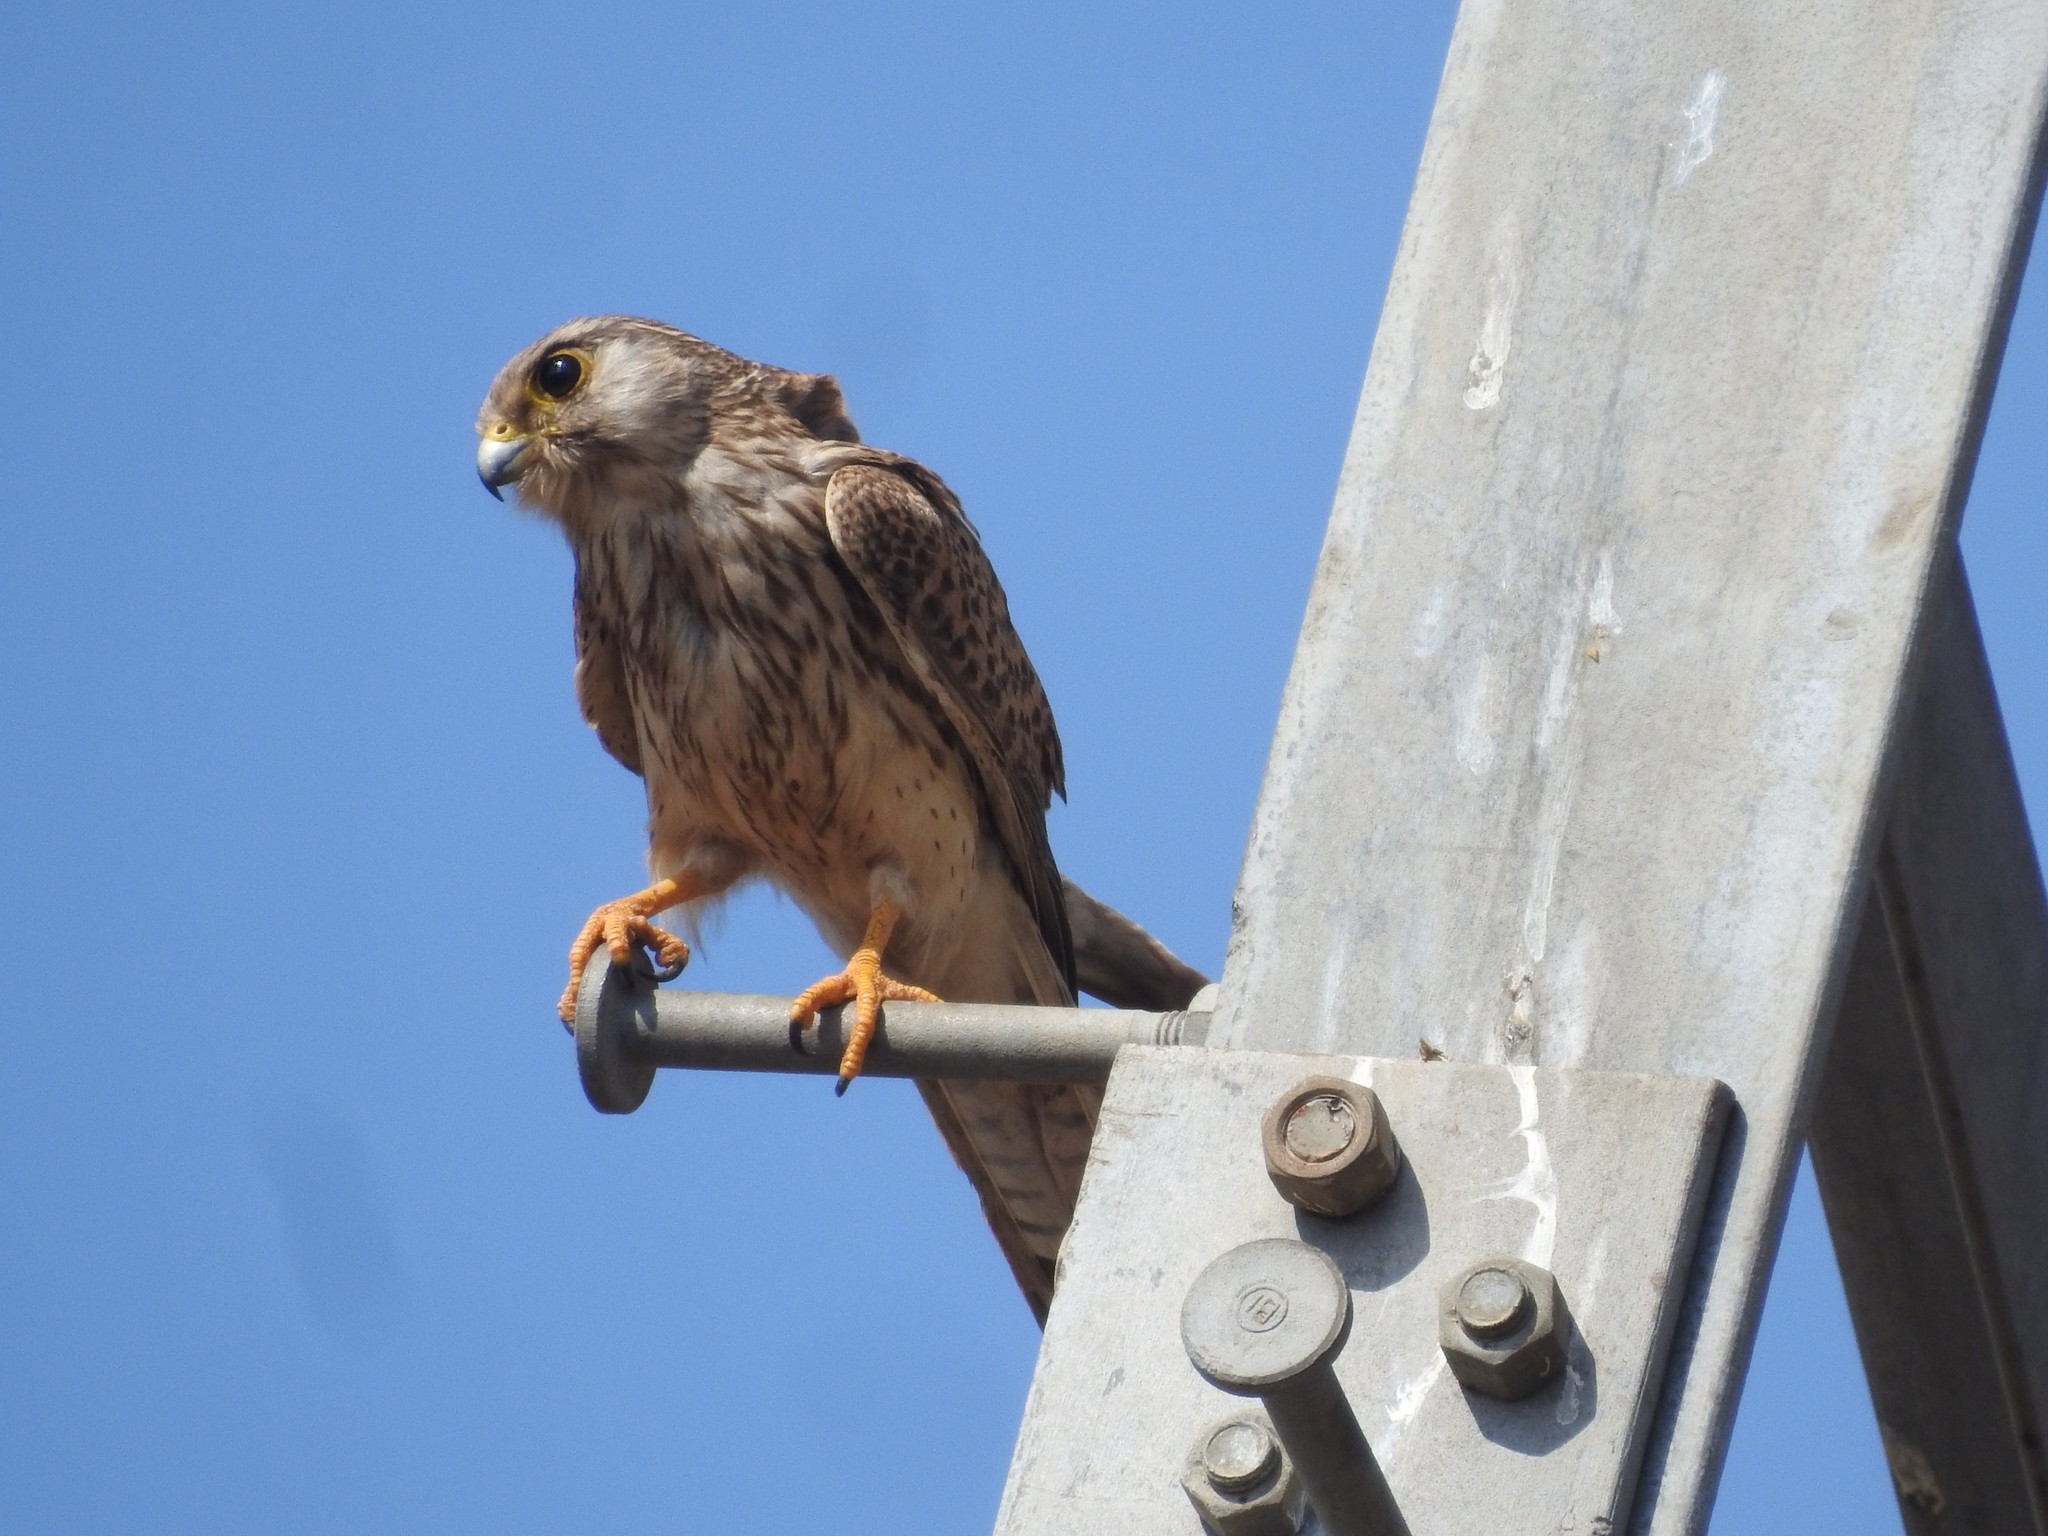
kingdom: Animalia
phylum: Chordata
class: Aves
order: Falconiformes
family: Falconidae
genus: Falco
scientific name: Falco tinnunculus
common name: Common kestrel
